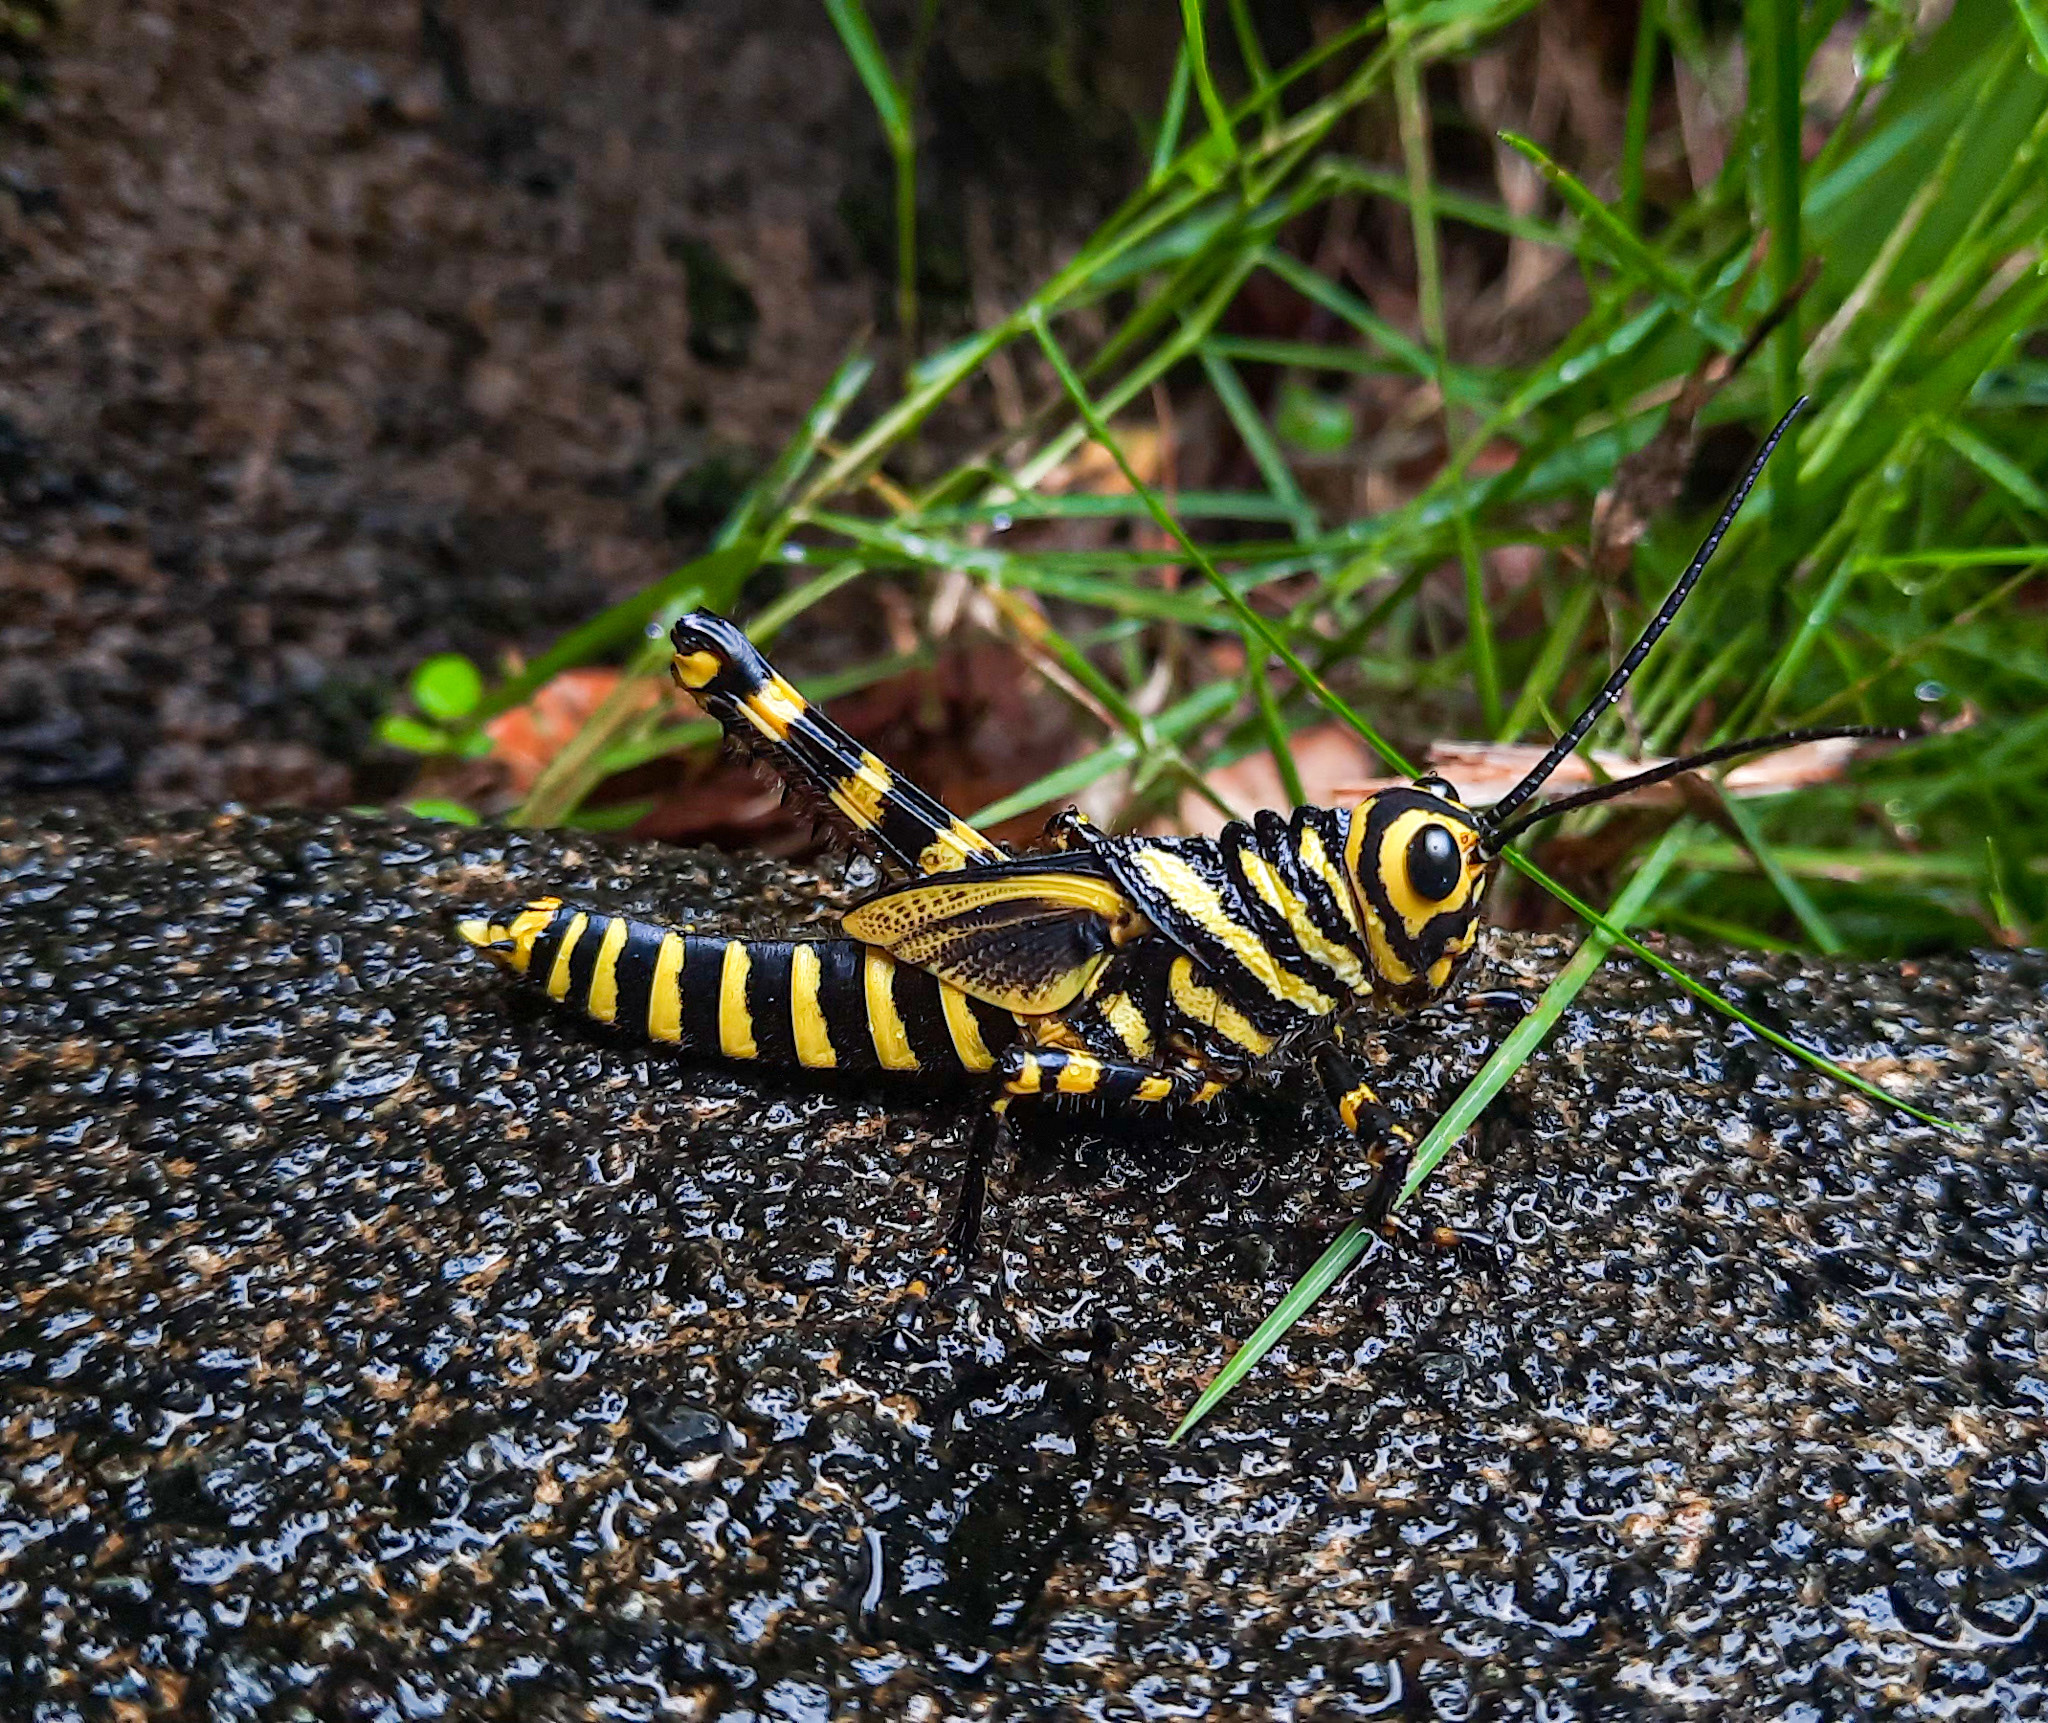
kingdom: Animalia
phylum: Arthropoda
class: Insecta
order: Orthoptera
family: Romaleidae
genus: Tropidacris
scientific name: Tropidacris cristata
